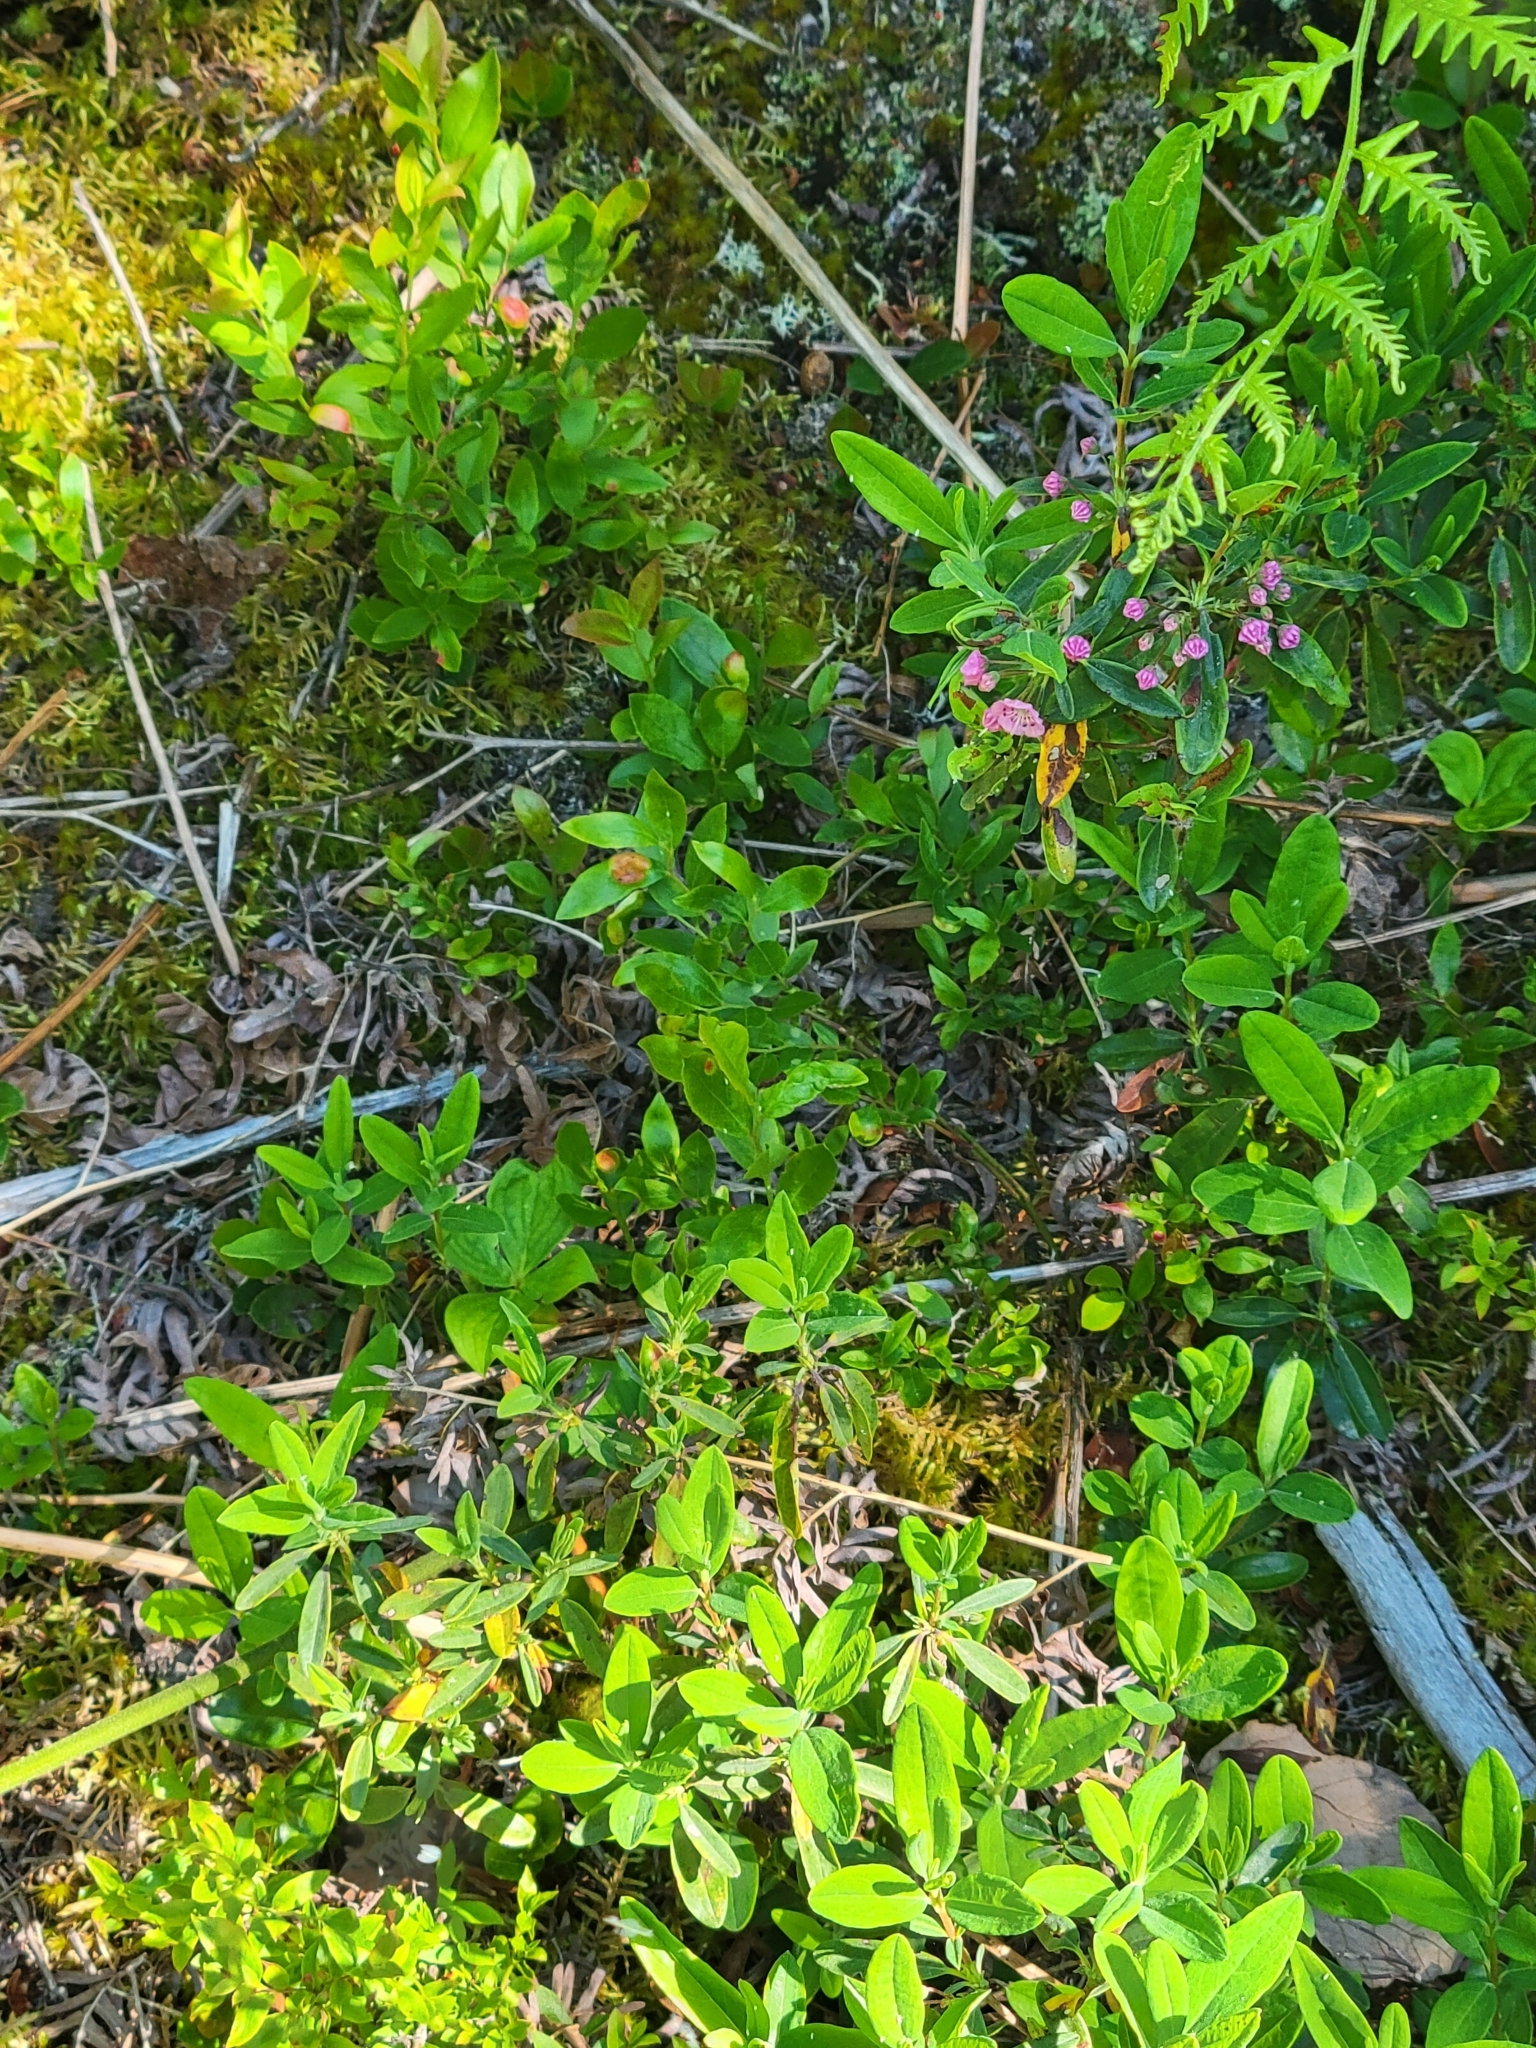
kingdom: Plantae
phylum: Tracheophyta
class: Magnoliopsida
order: Ericales
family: Ericaceae
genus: Kalmia
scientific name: Kalmia angustifolia
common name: Sheep-laurel
